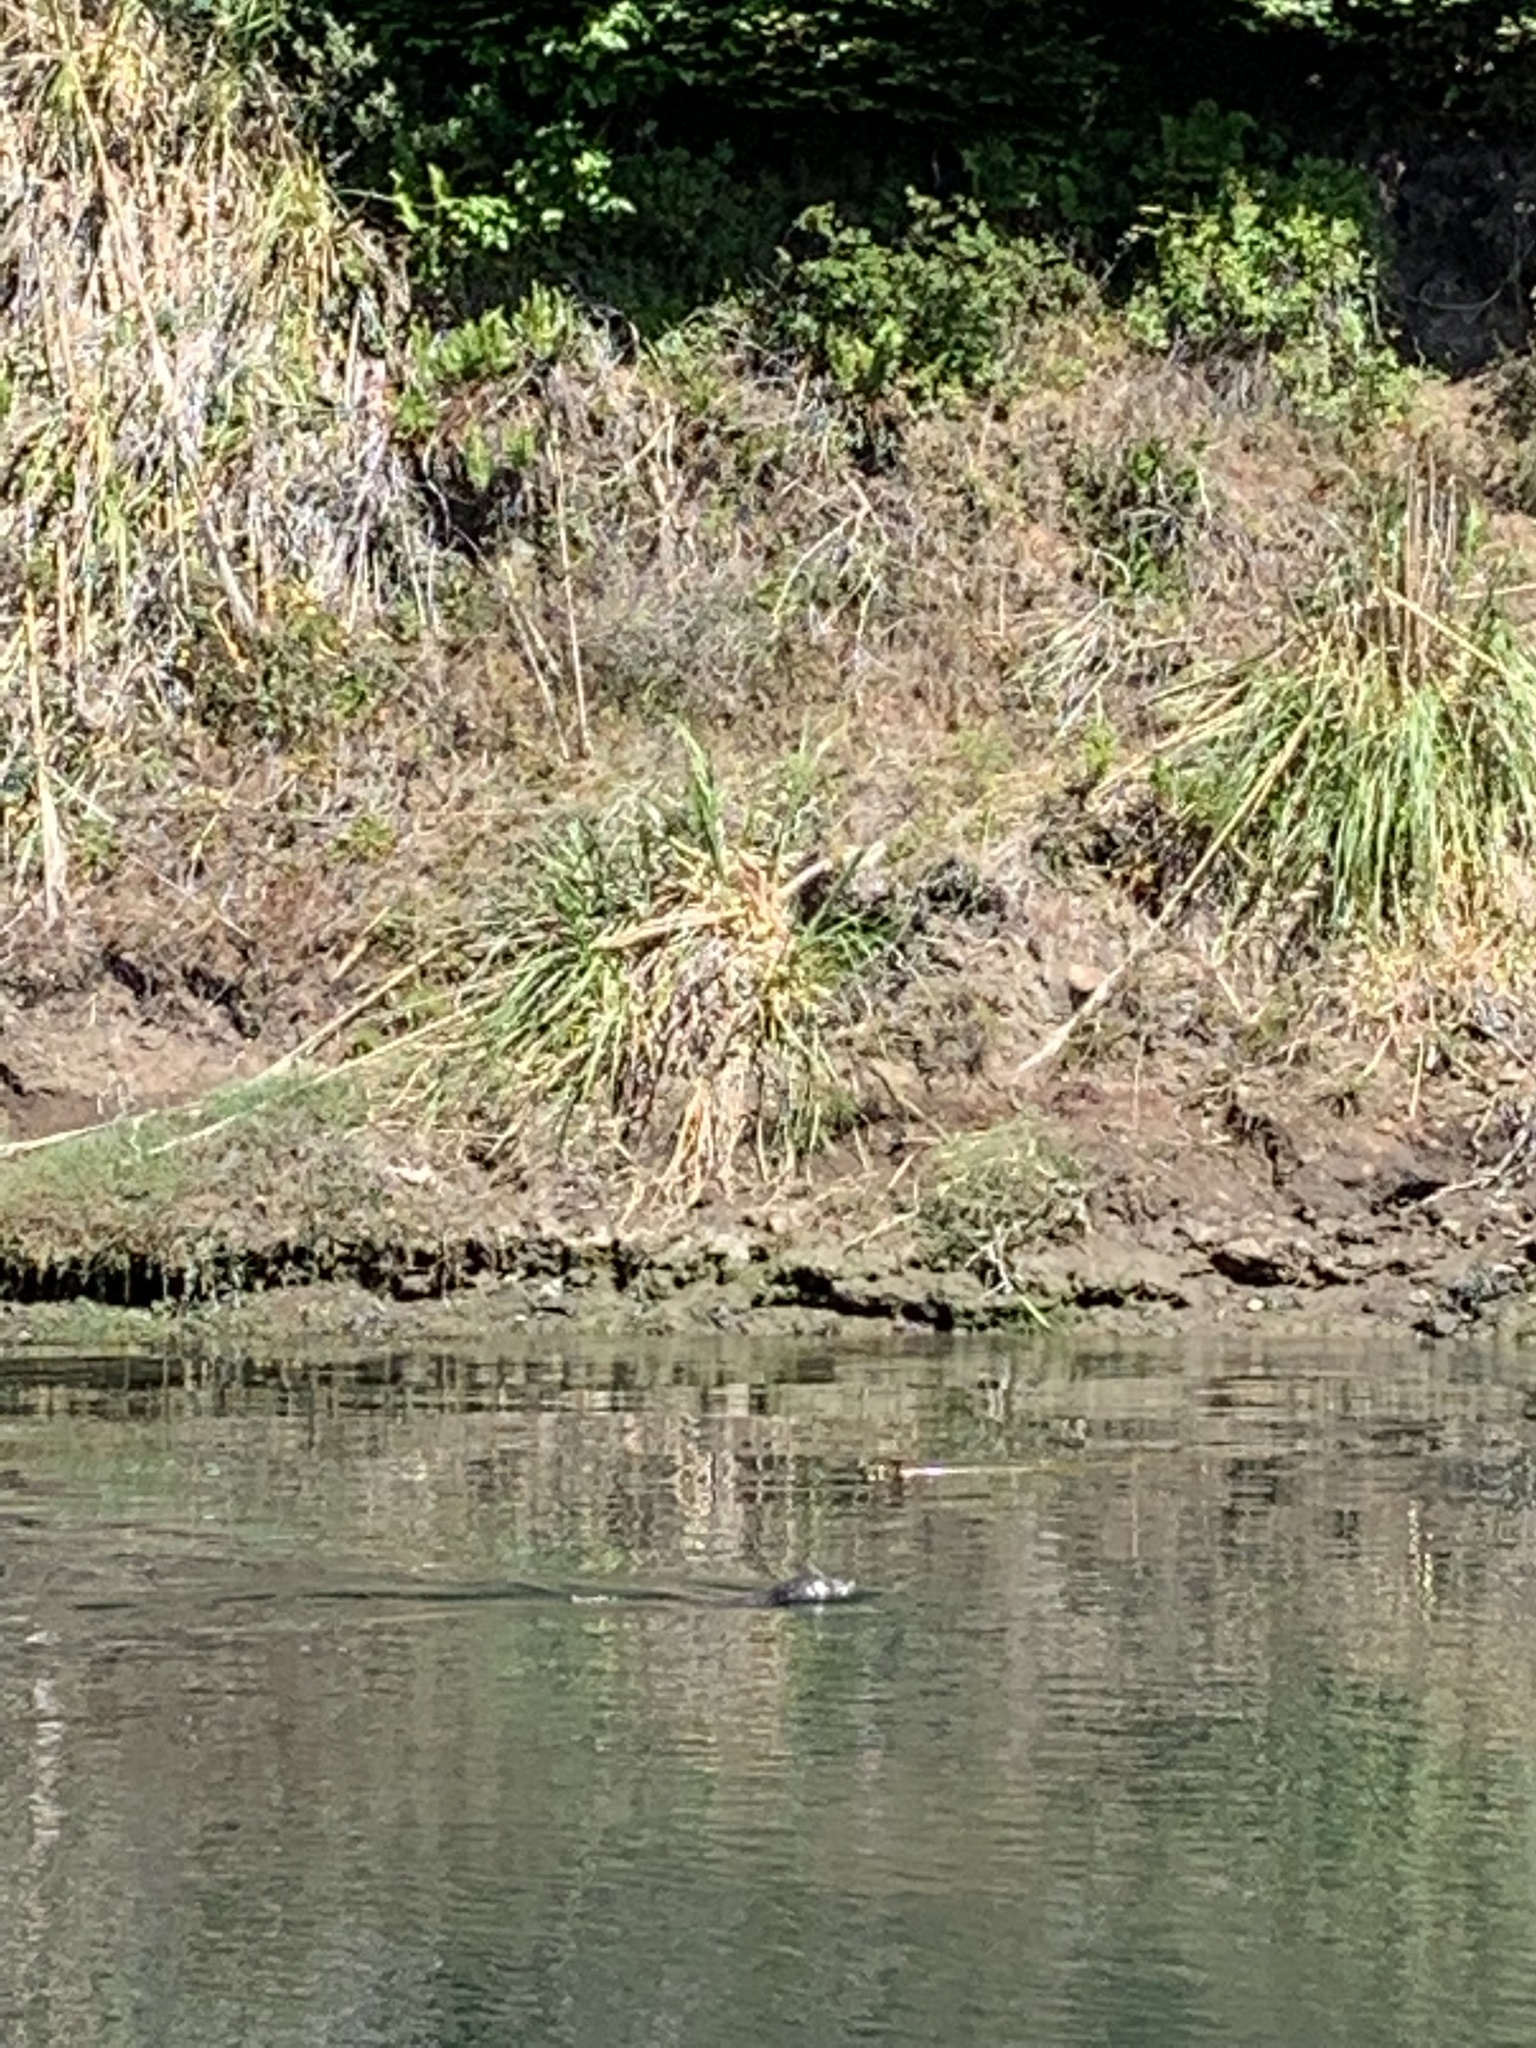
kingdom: Animalia
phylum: Chordata
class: Mammalia
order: Carnivora
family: Phocidae
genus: Phoca
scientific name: Phoca vitulina
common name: Harbor seal
